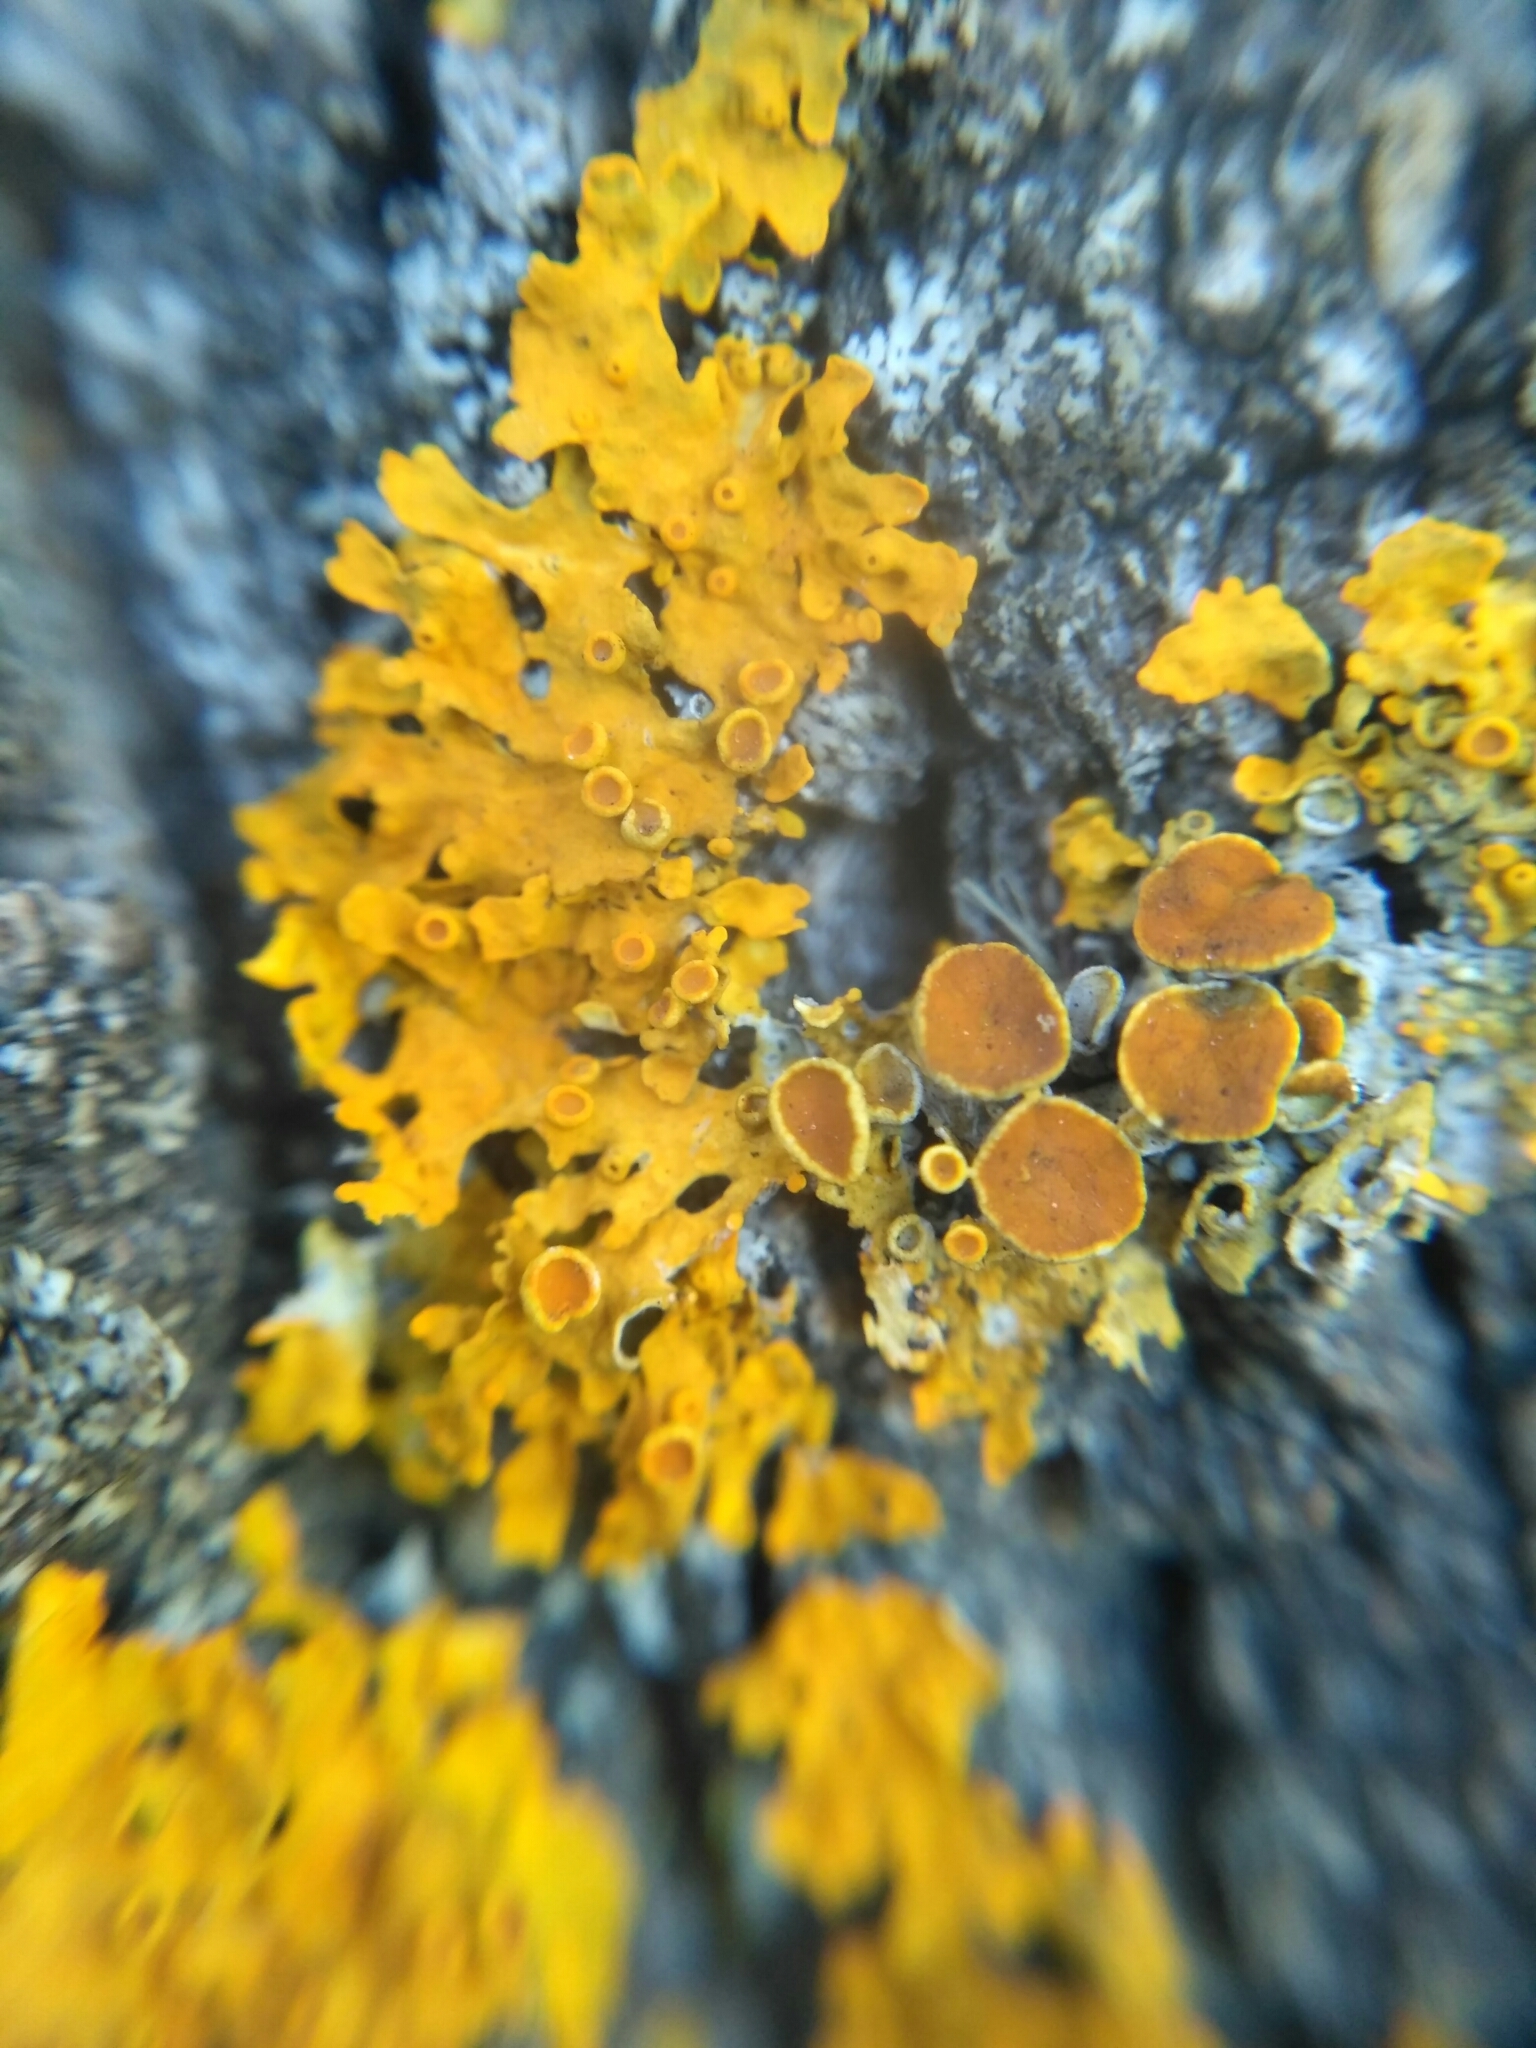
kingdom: Fungi
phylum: Ascomycota
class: Lecanoromycetes
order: Teloschistales
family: Teloschistaceae
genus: Xanthoria
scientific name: Xanthoria parietina
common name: Common orange lichen
